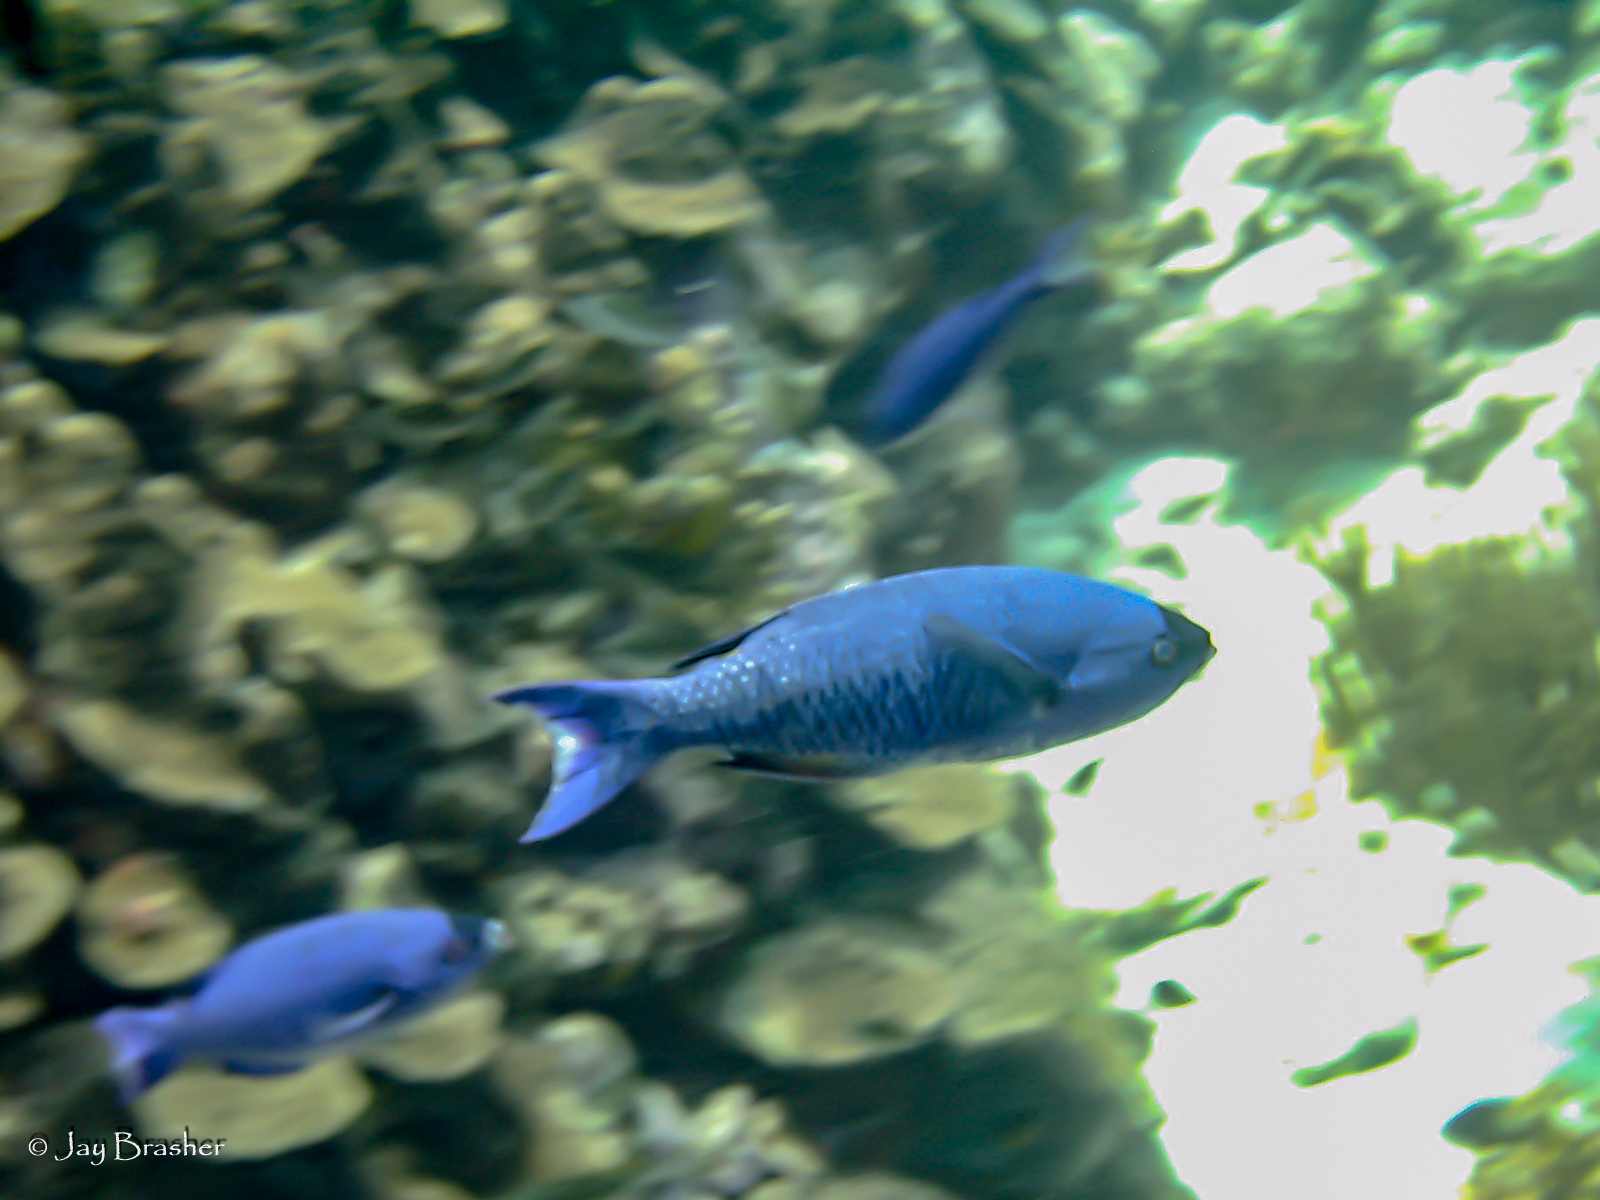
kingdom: Animalia
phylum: Chordata
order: Perciformes
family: Labridae
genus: Bodianus
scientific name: Bodianus
